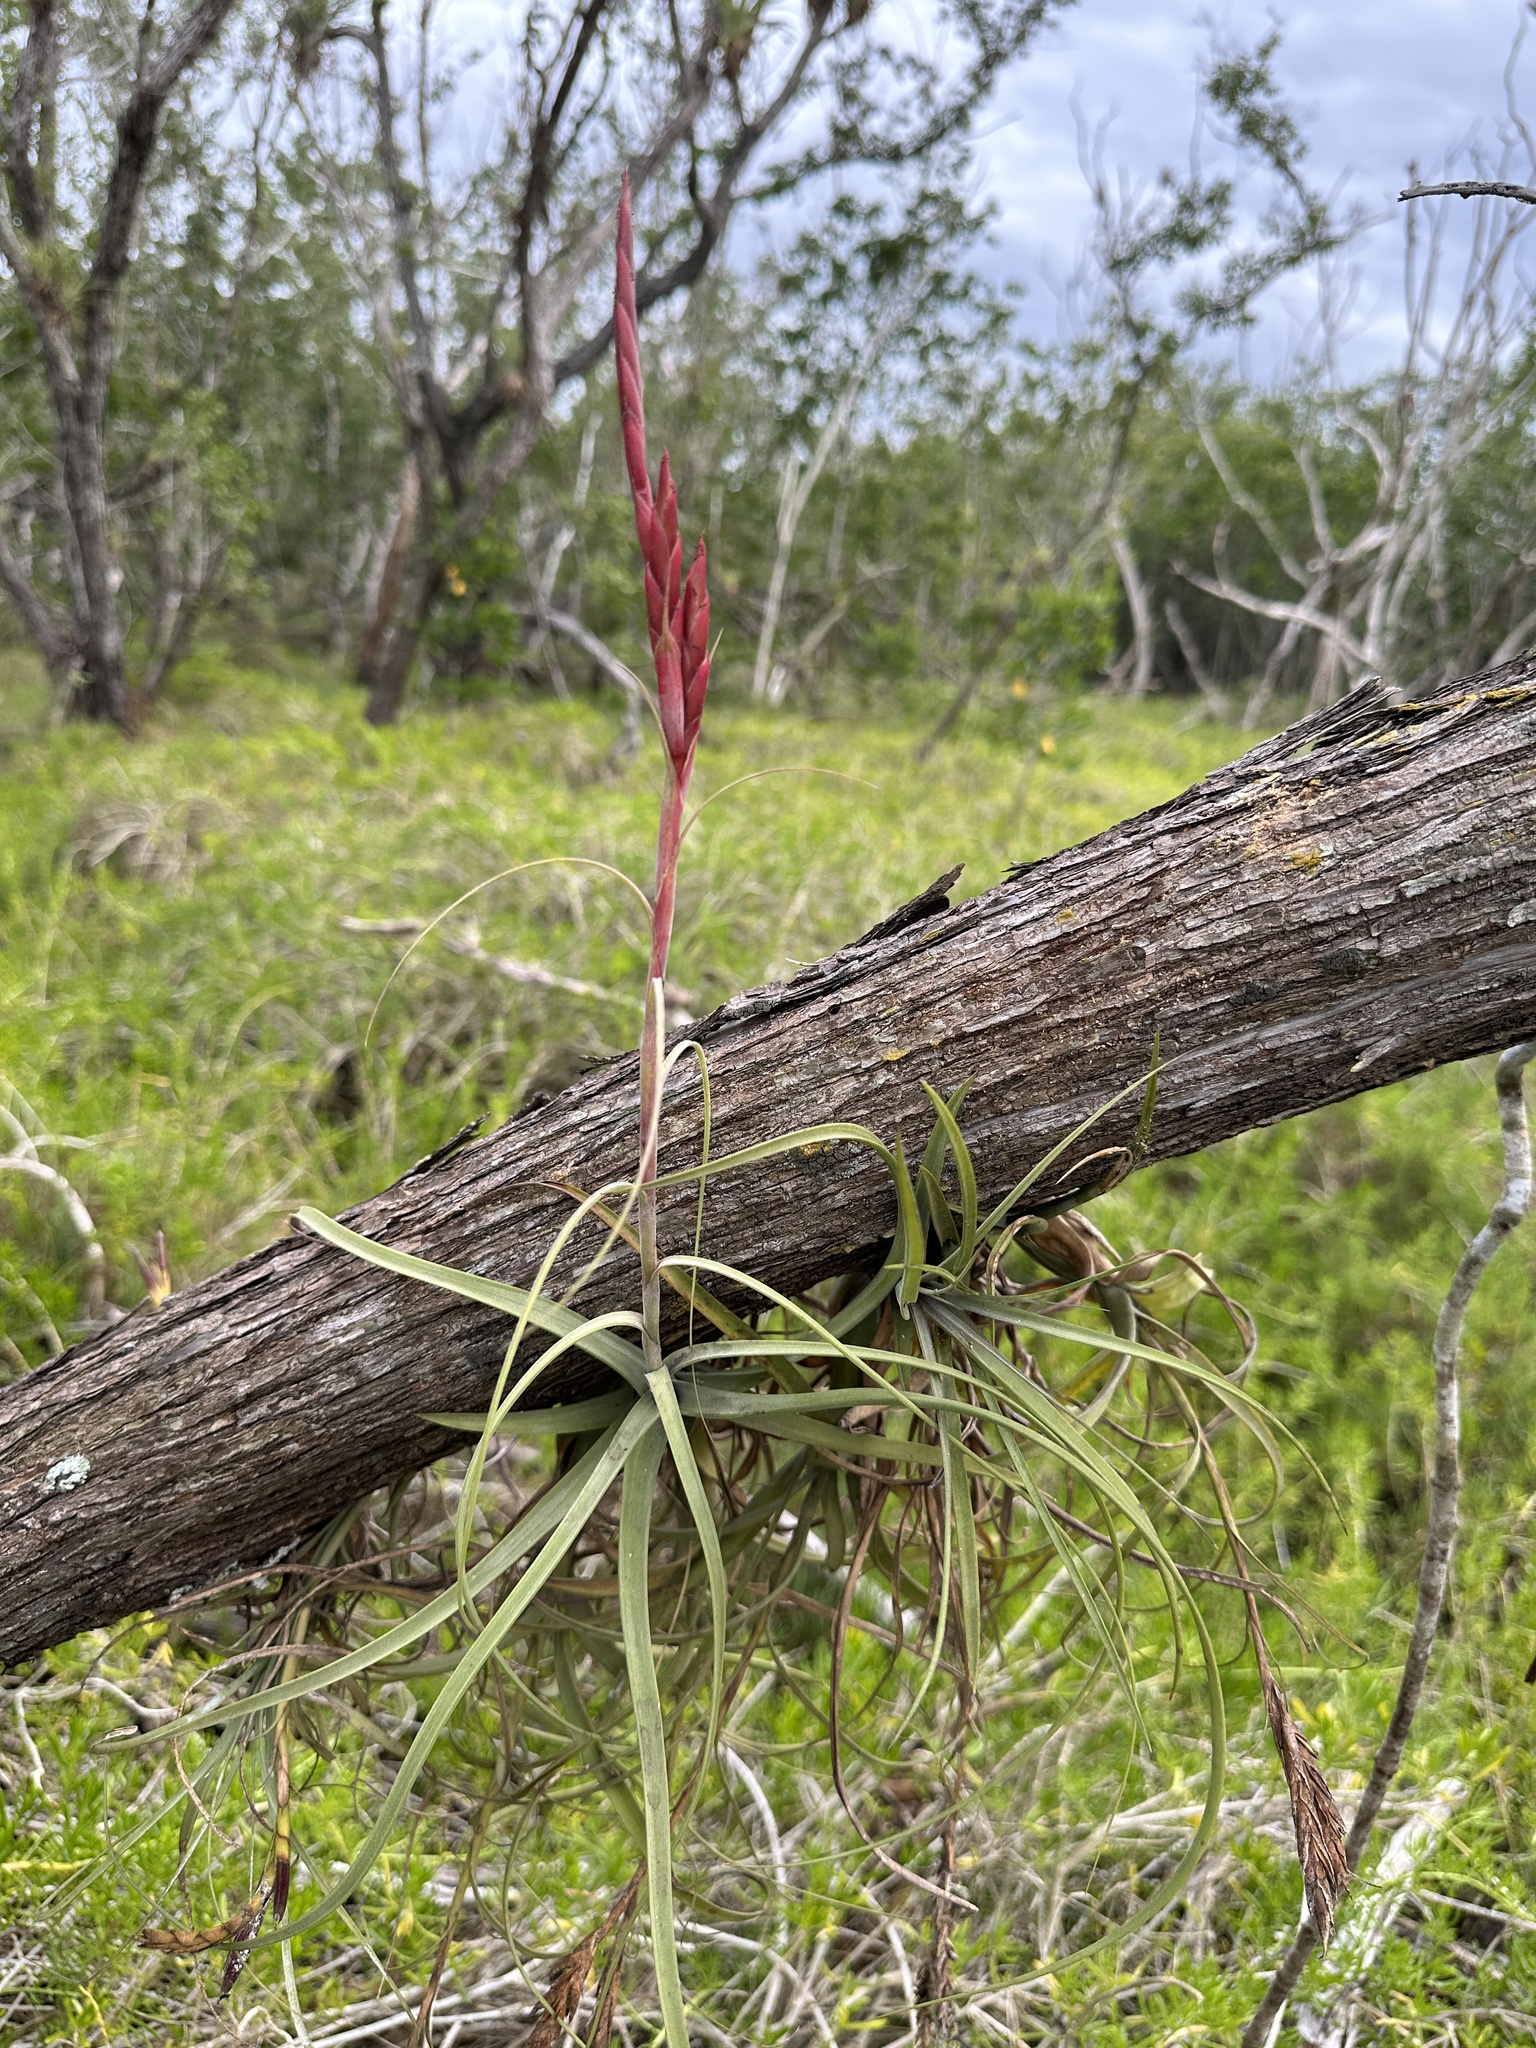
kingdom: Plantae
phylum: Tracheophyta
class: Liliopsida
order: Poales
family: Bromeliaceae
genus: Tillandsia
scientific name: Tillandsia balbisiana
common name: Northern needleleaf
